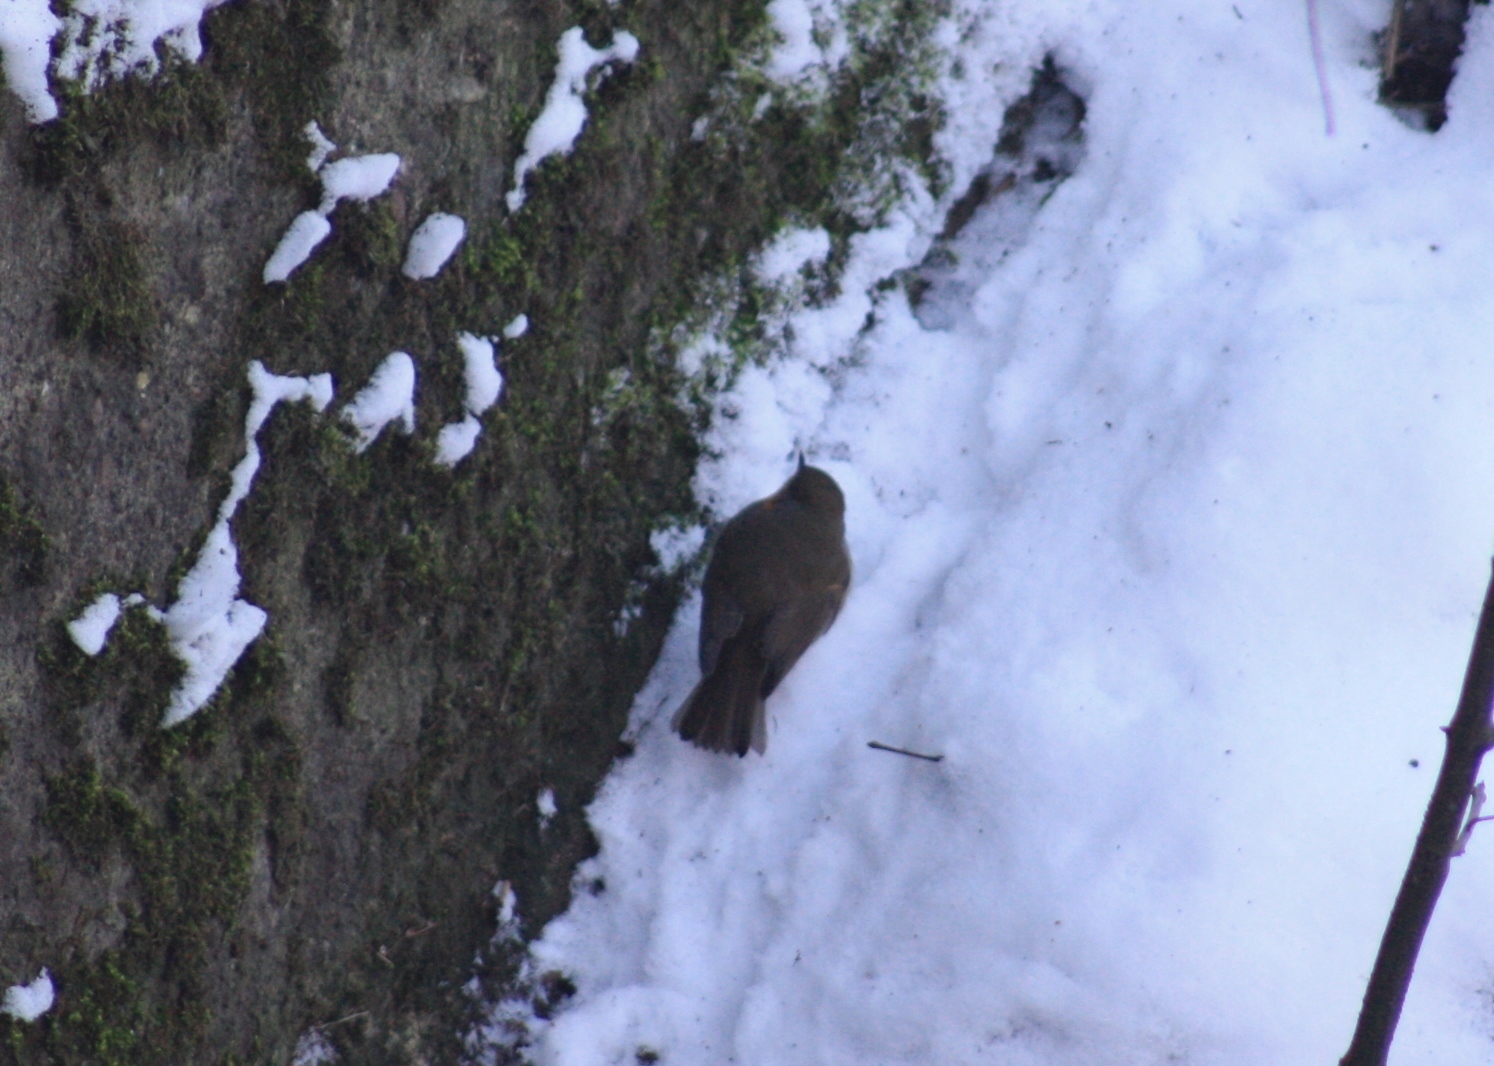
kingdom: Animalia
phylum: Chordata
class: Aves
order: Passeriformes
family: Muscicapidae
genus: Erithacus
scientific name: Erithacus rubecula
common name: European robin
